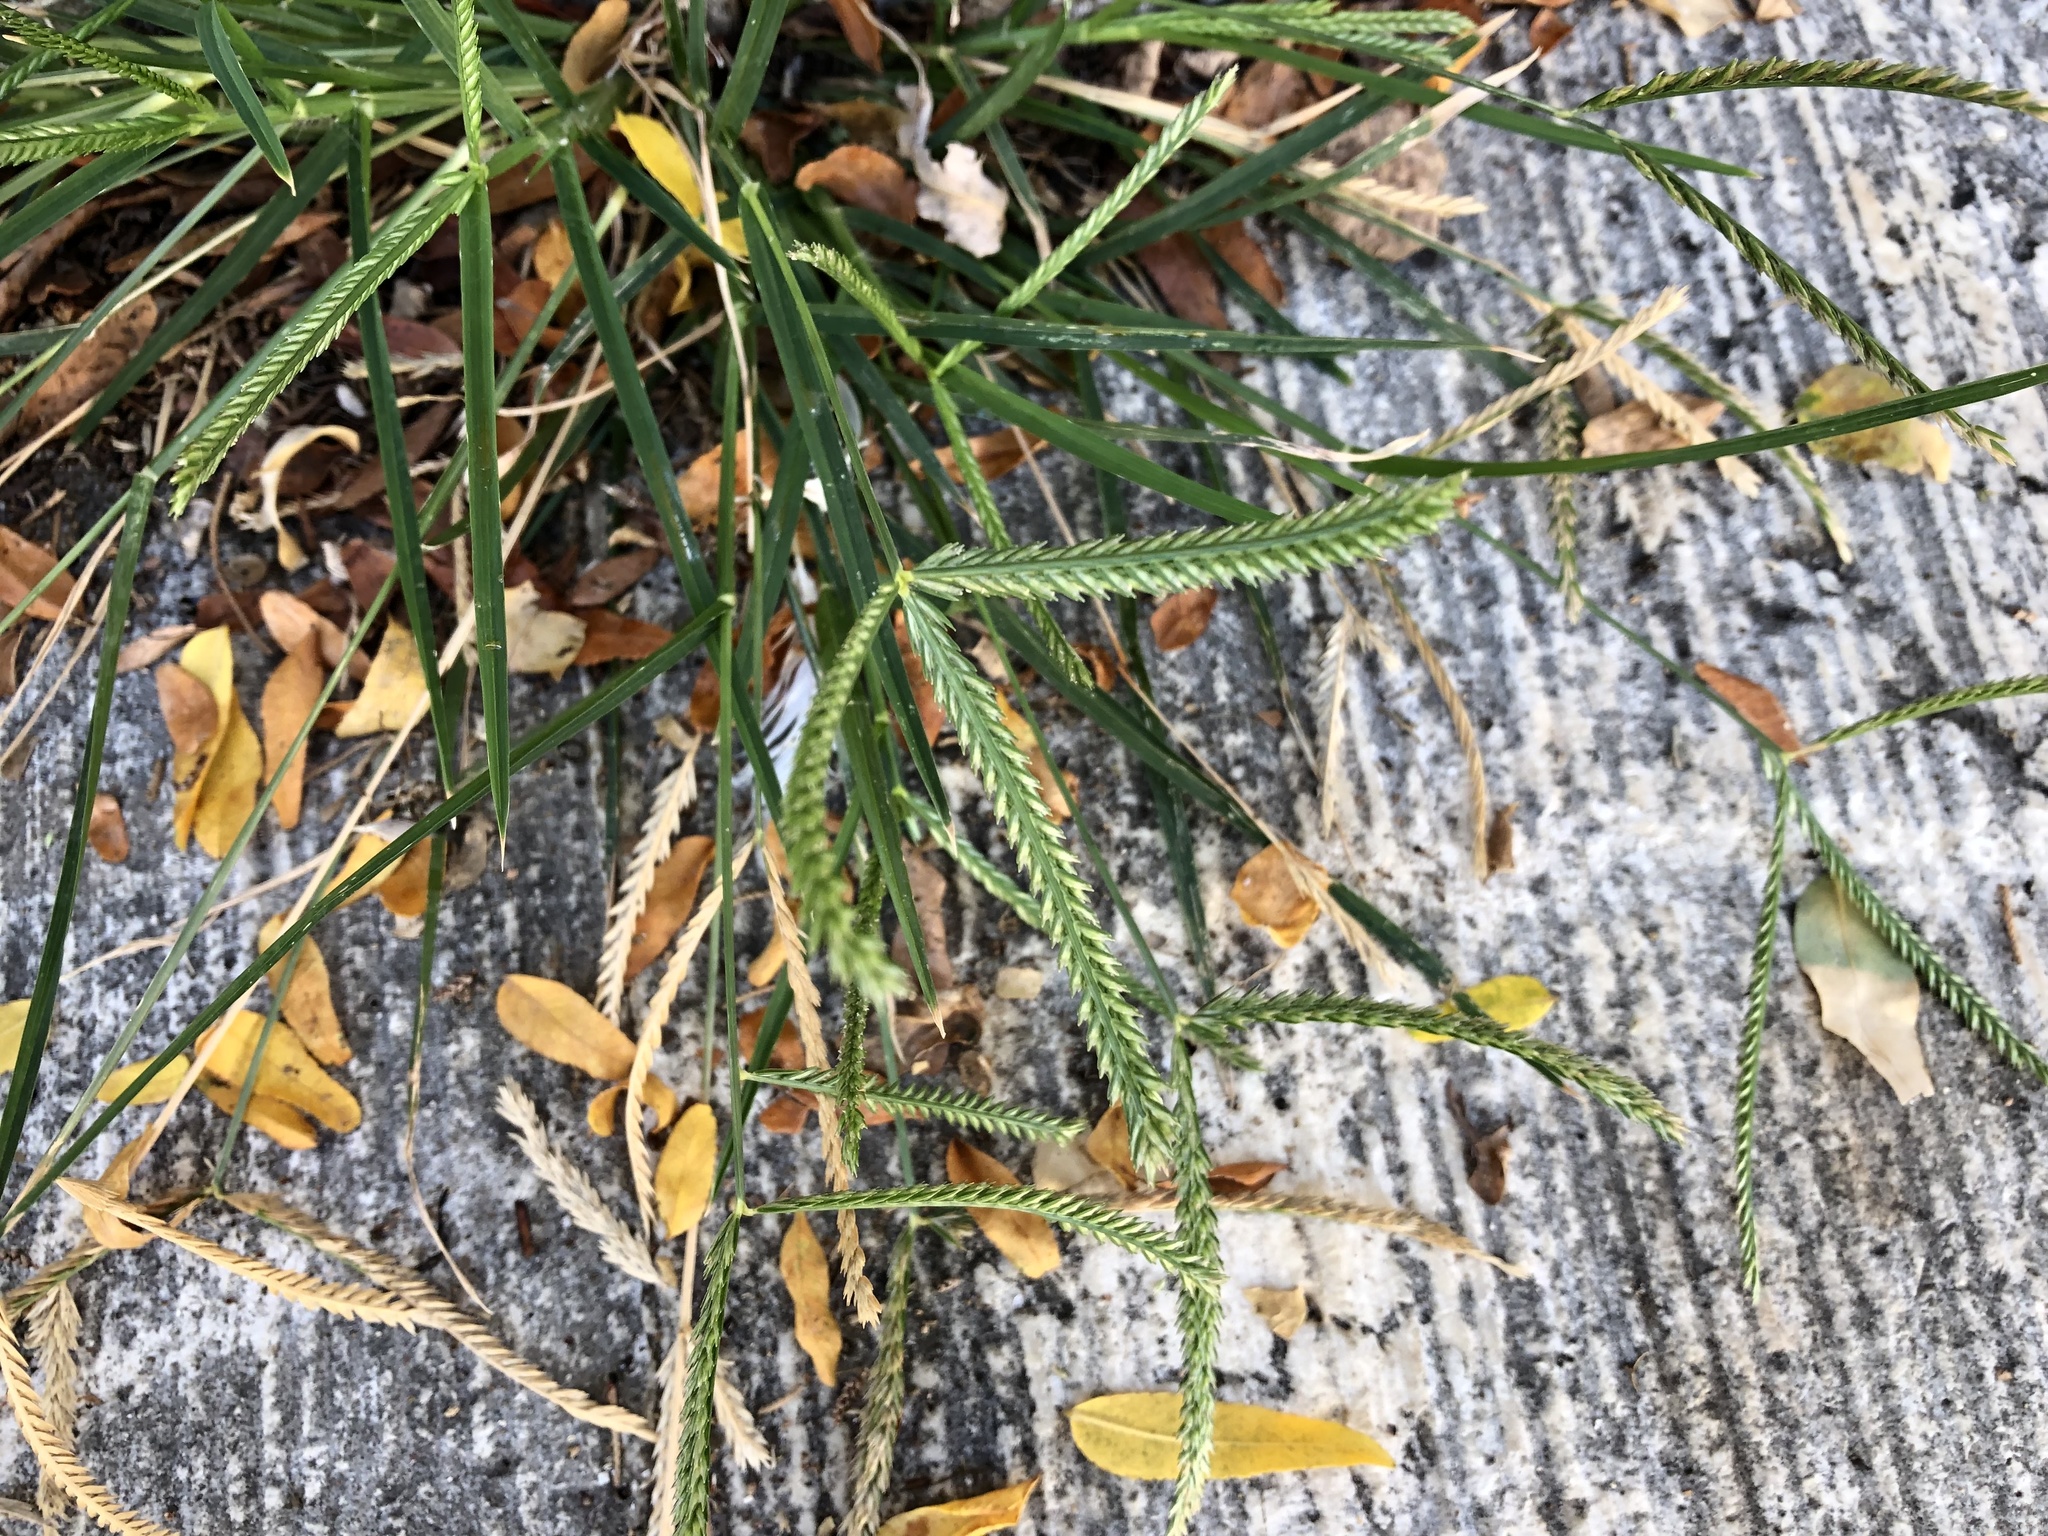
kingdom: Plantae
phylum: Tracheophyta
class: Liliopsida
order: Poales
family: Poaceae
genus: Eleusine
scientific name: Eleusine indica
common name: Yard-grass
